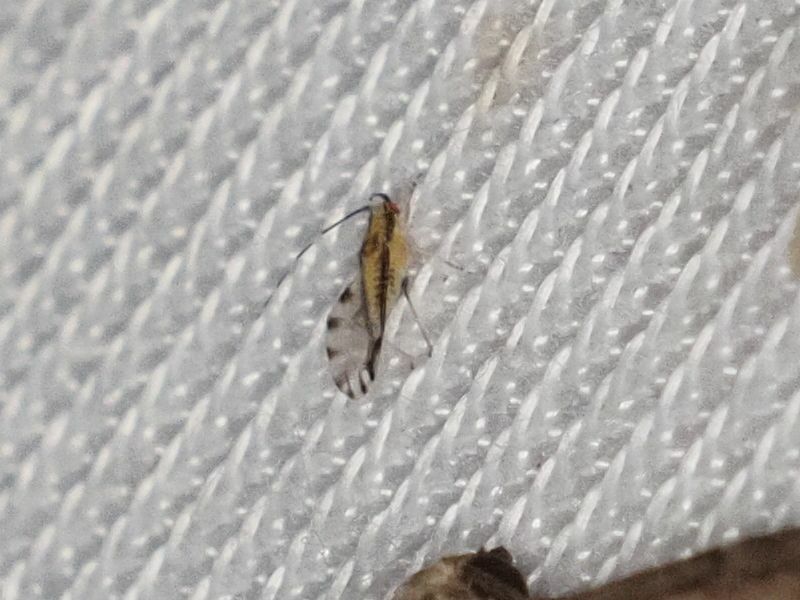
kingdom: Animalia
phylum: Arthropoda
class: Insecta
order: Hemiptera
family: Aphididae
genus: Eucallipterus
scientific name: Eucallipterus tiliae
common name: Aphid
